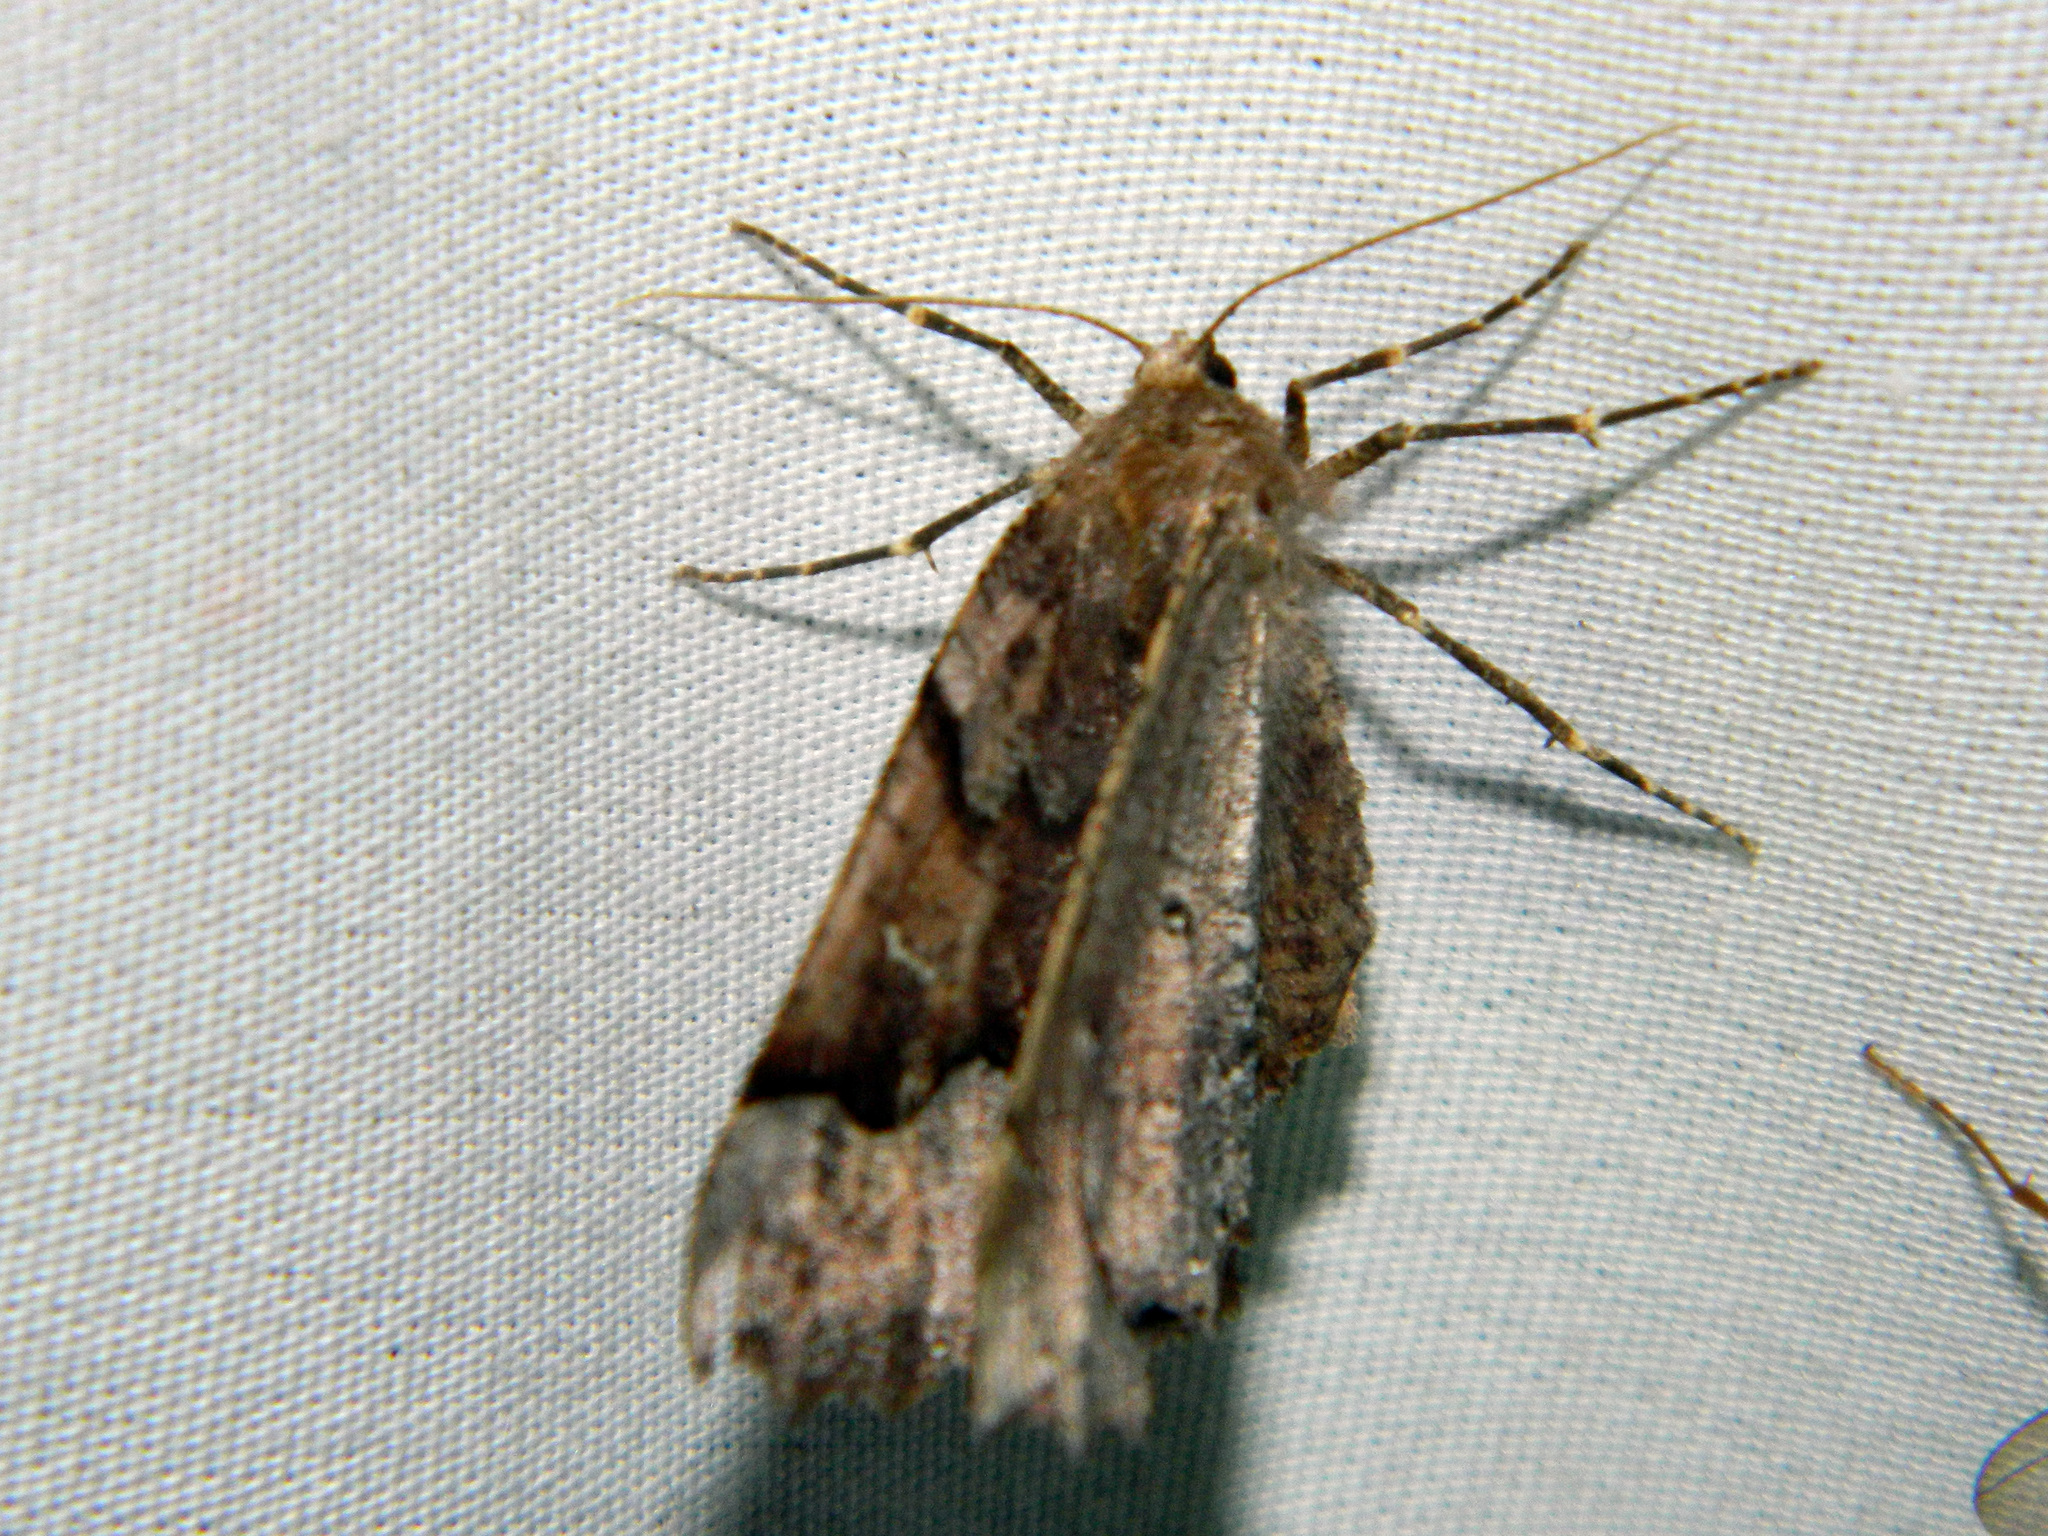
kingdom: Animalia
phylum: Arthropoda
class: Insecta
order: Lepidoptera
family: Geometridae
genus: Pero
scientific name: Pero morrisonaria
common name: Morrison's pero
